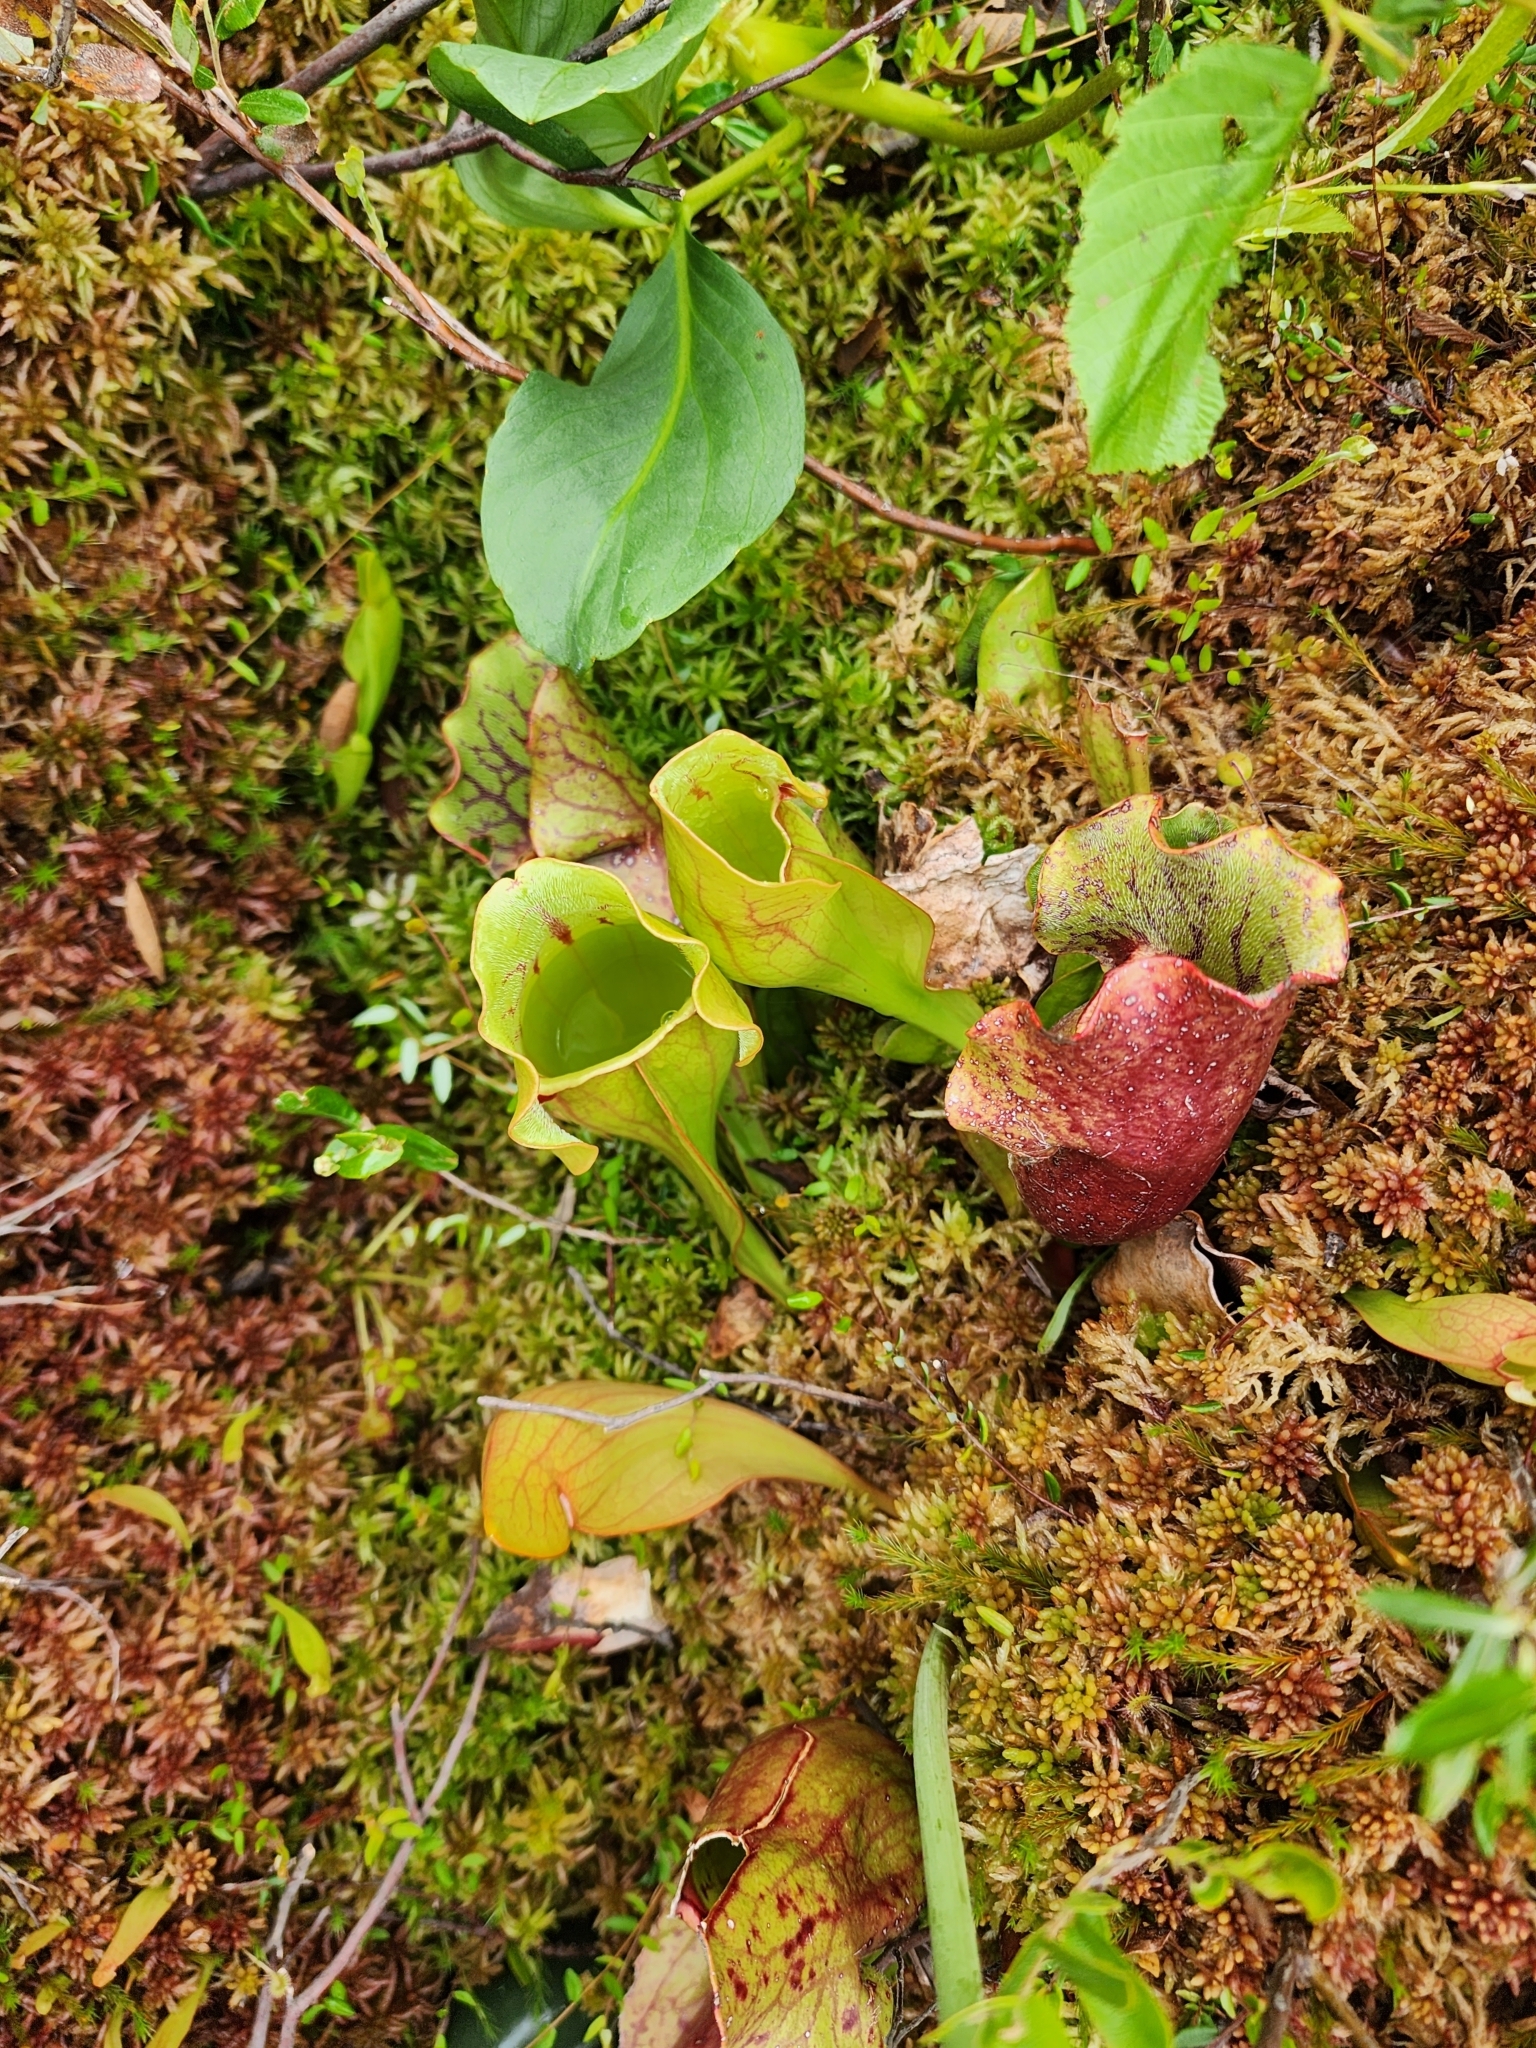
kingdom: Plantae
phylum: Tracheophyta
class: Magnoliopsida
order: Ericales
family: Sarraceniaceae
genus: Sarracenia
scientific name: Sarracenia purpurea
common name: Pitcherplant
